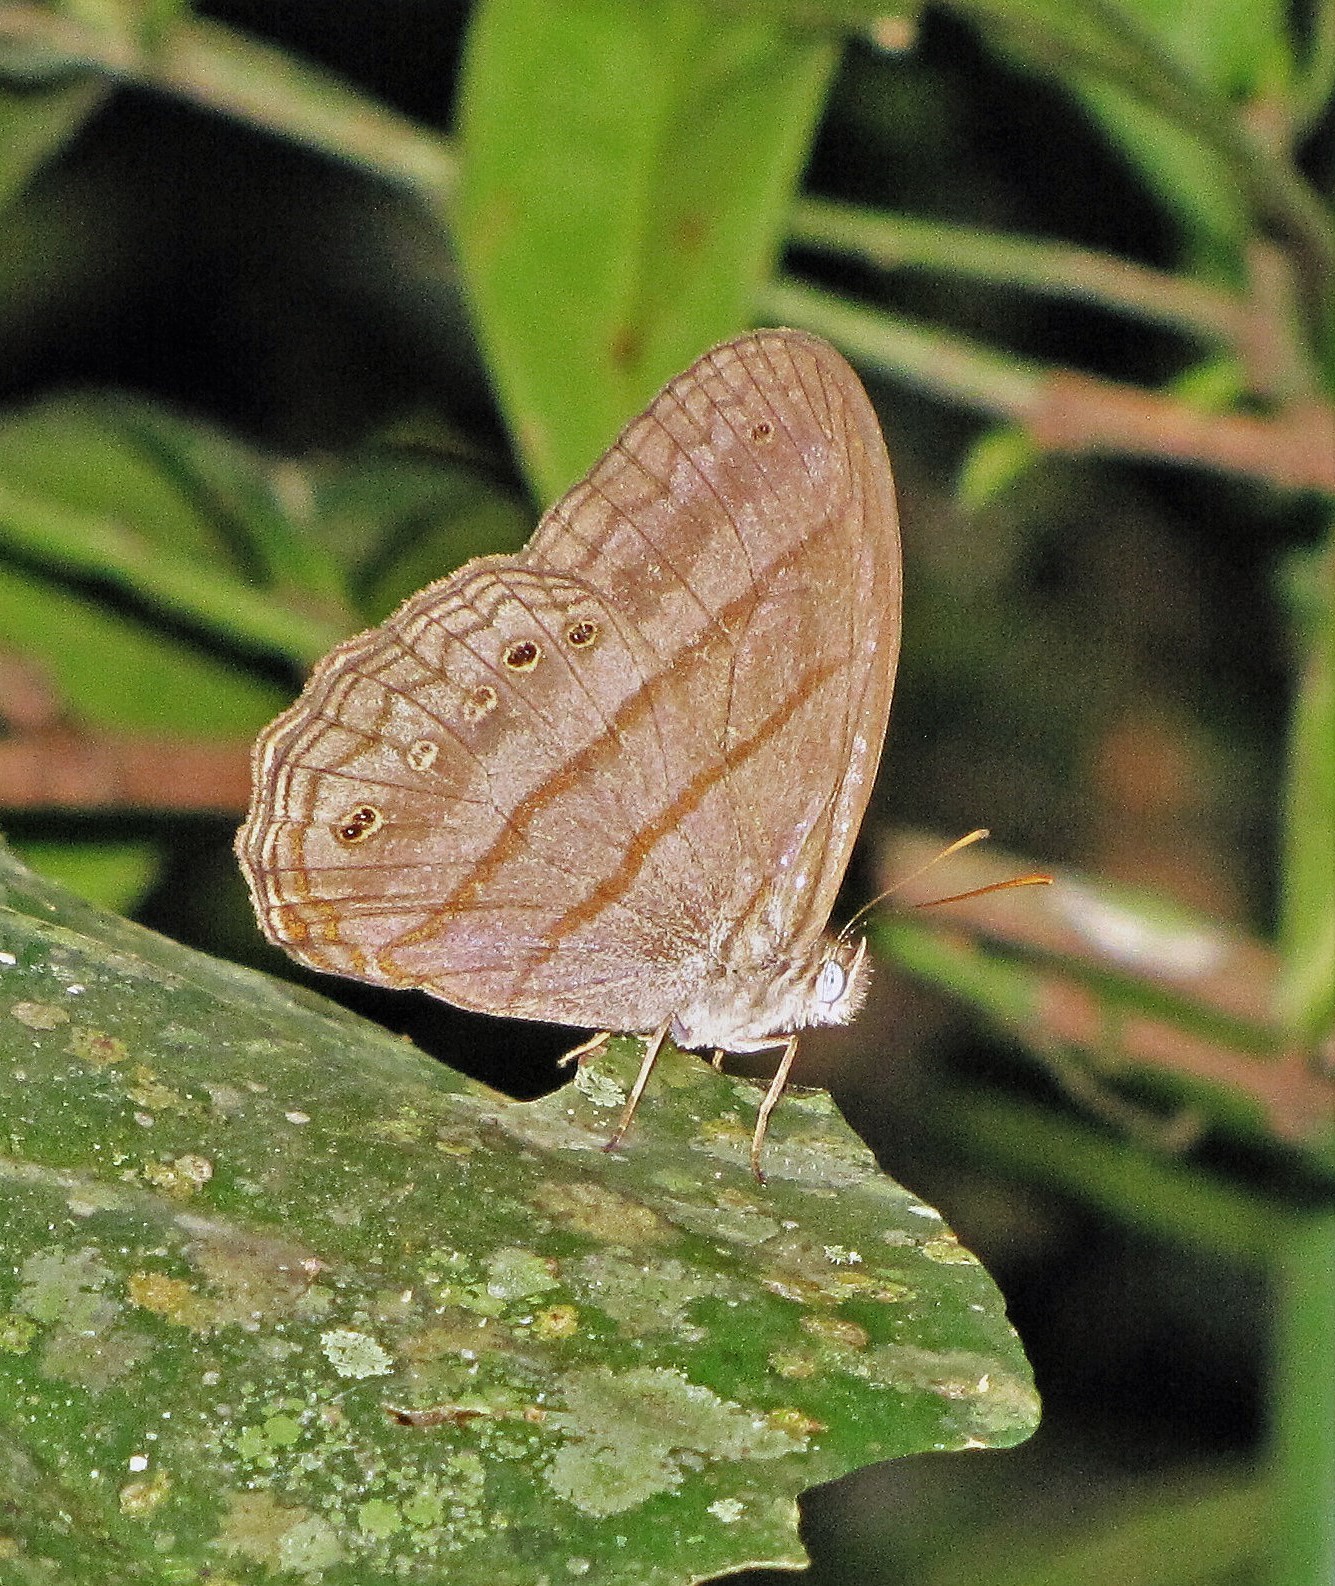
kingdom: Animalia
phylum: Arthropoda
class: Insecta
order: Lepidoptera
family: Nymphalidae
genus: Deltaya
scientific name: Deltaya
